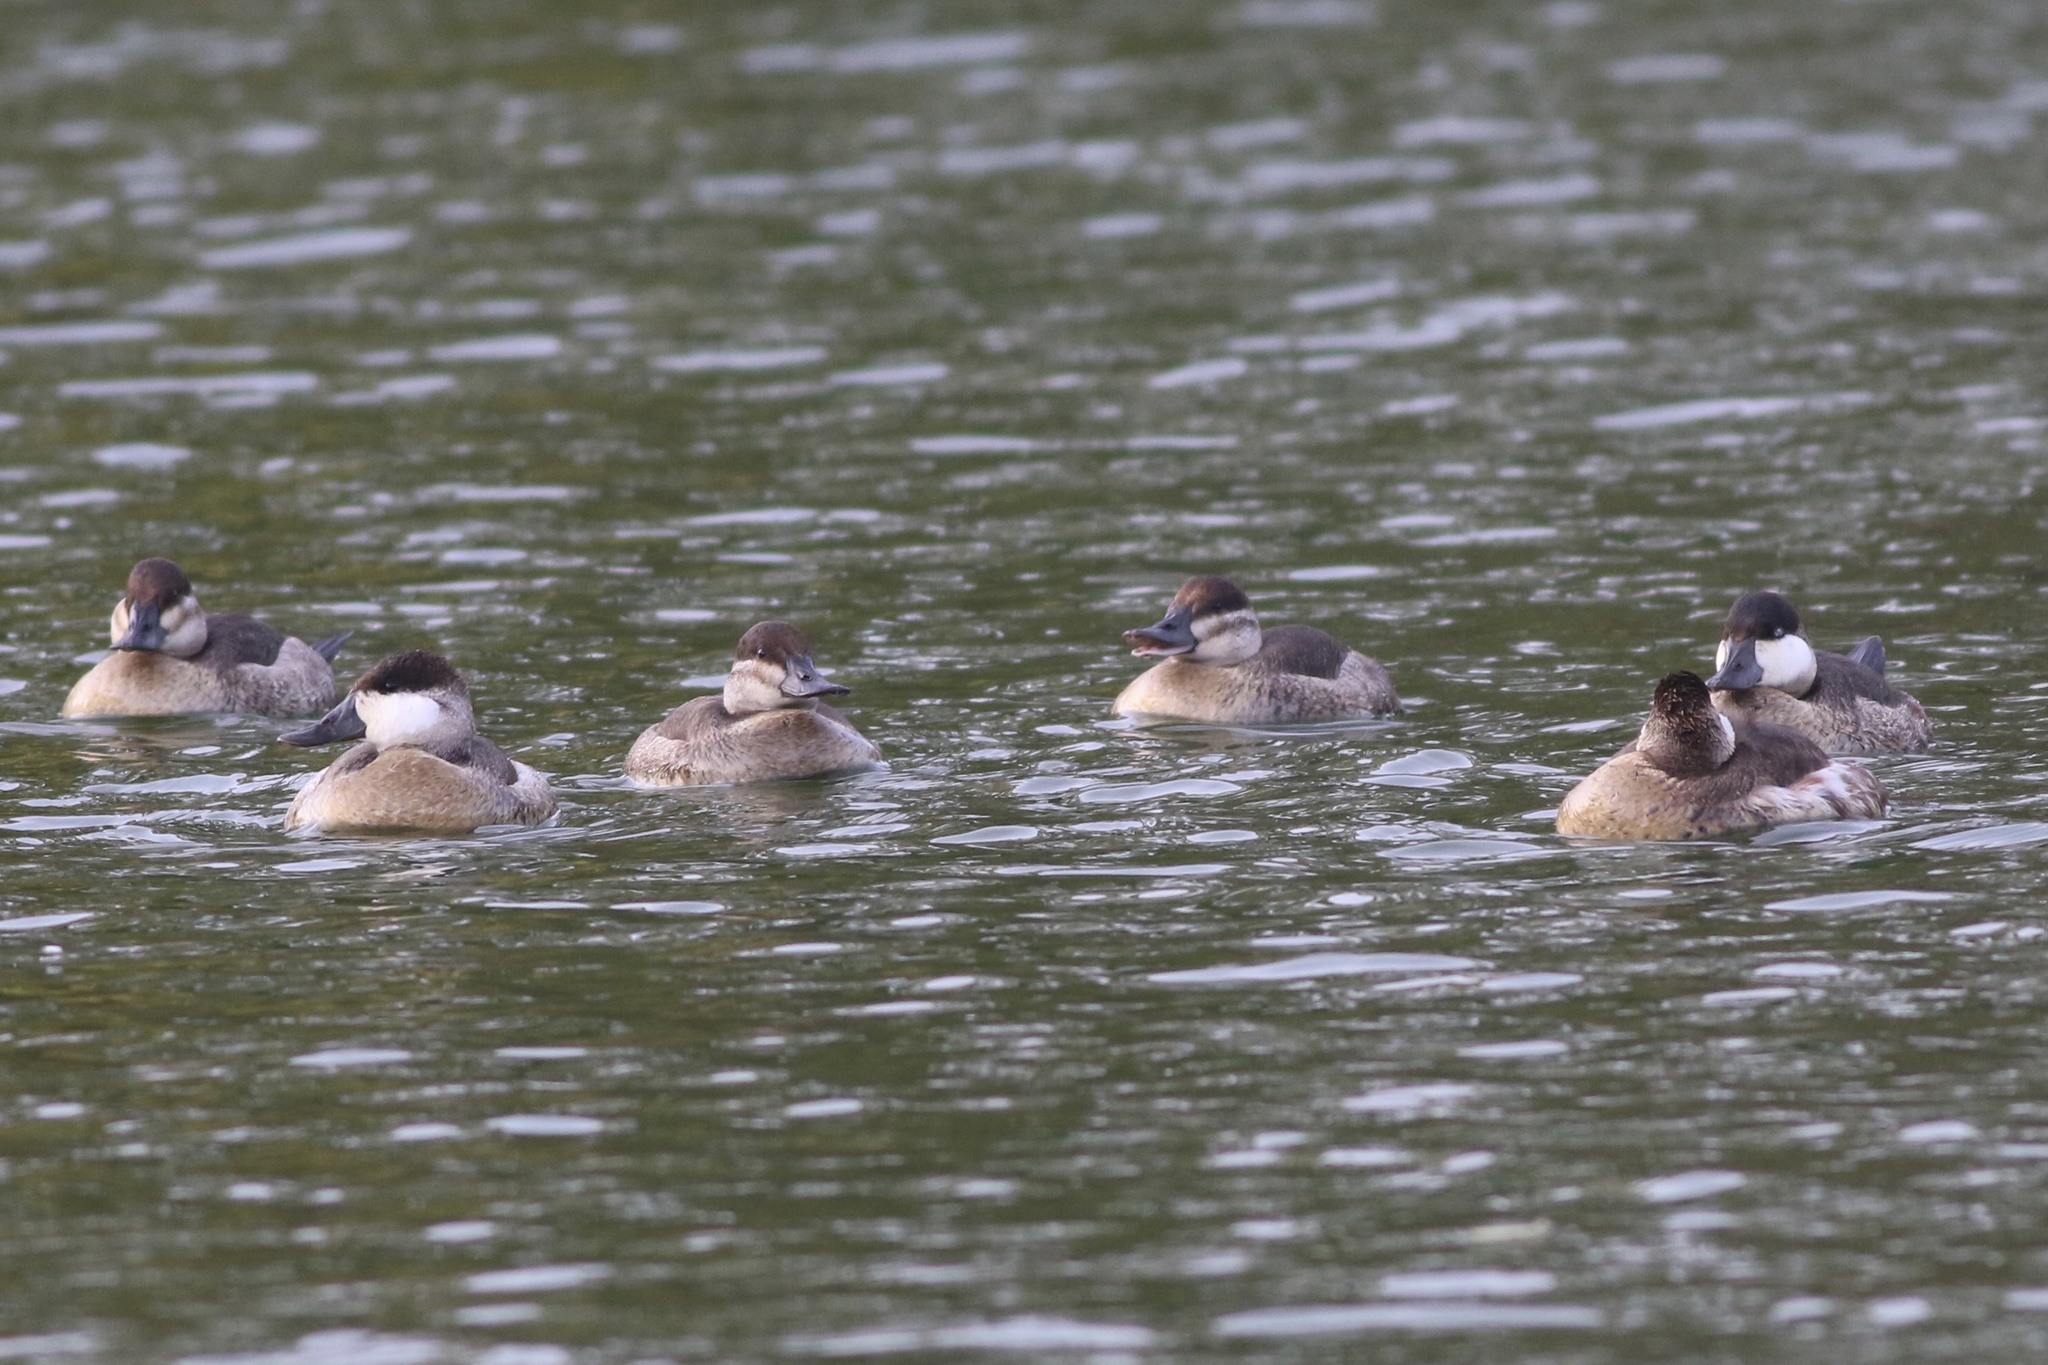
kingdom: Animalia
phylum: Chordata
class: Aves
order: Anseriformes
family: Anatidae
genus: Oxyura
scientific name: Oxyura jamaicensis
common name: Ruddy duck
